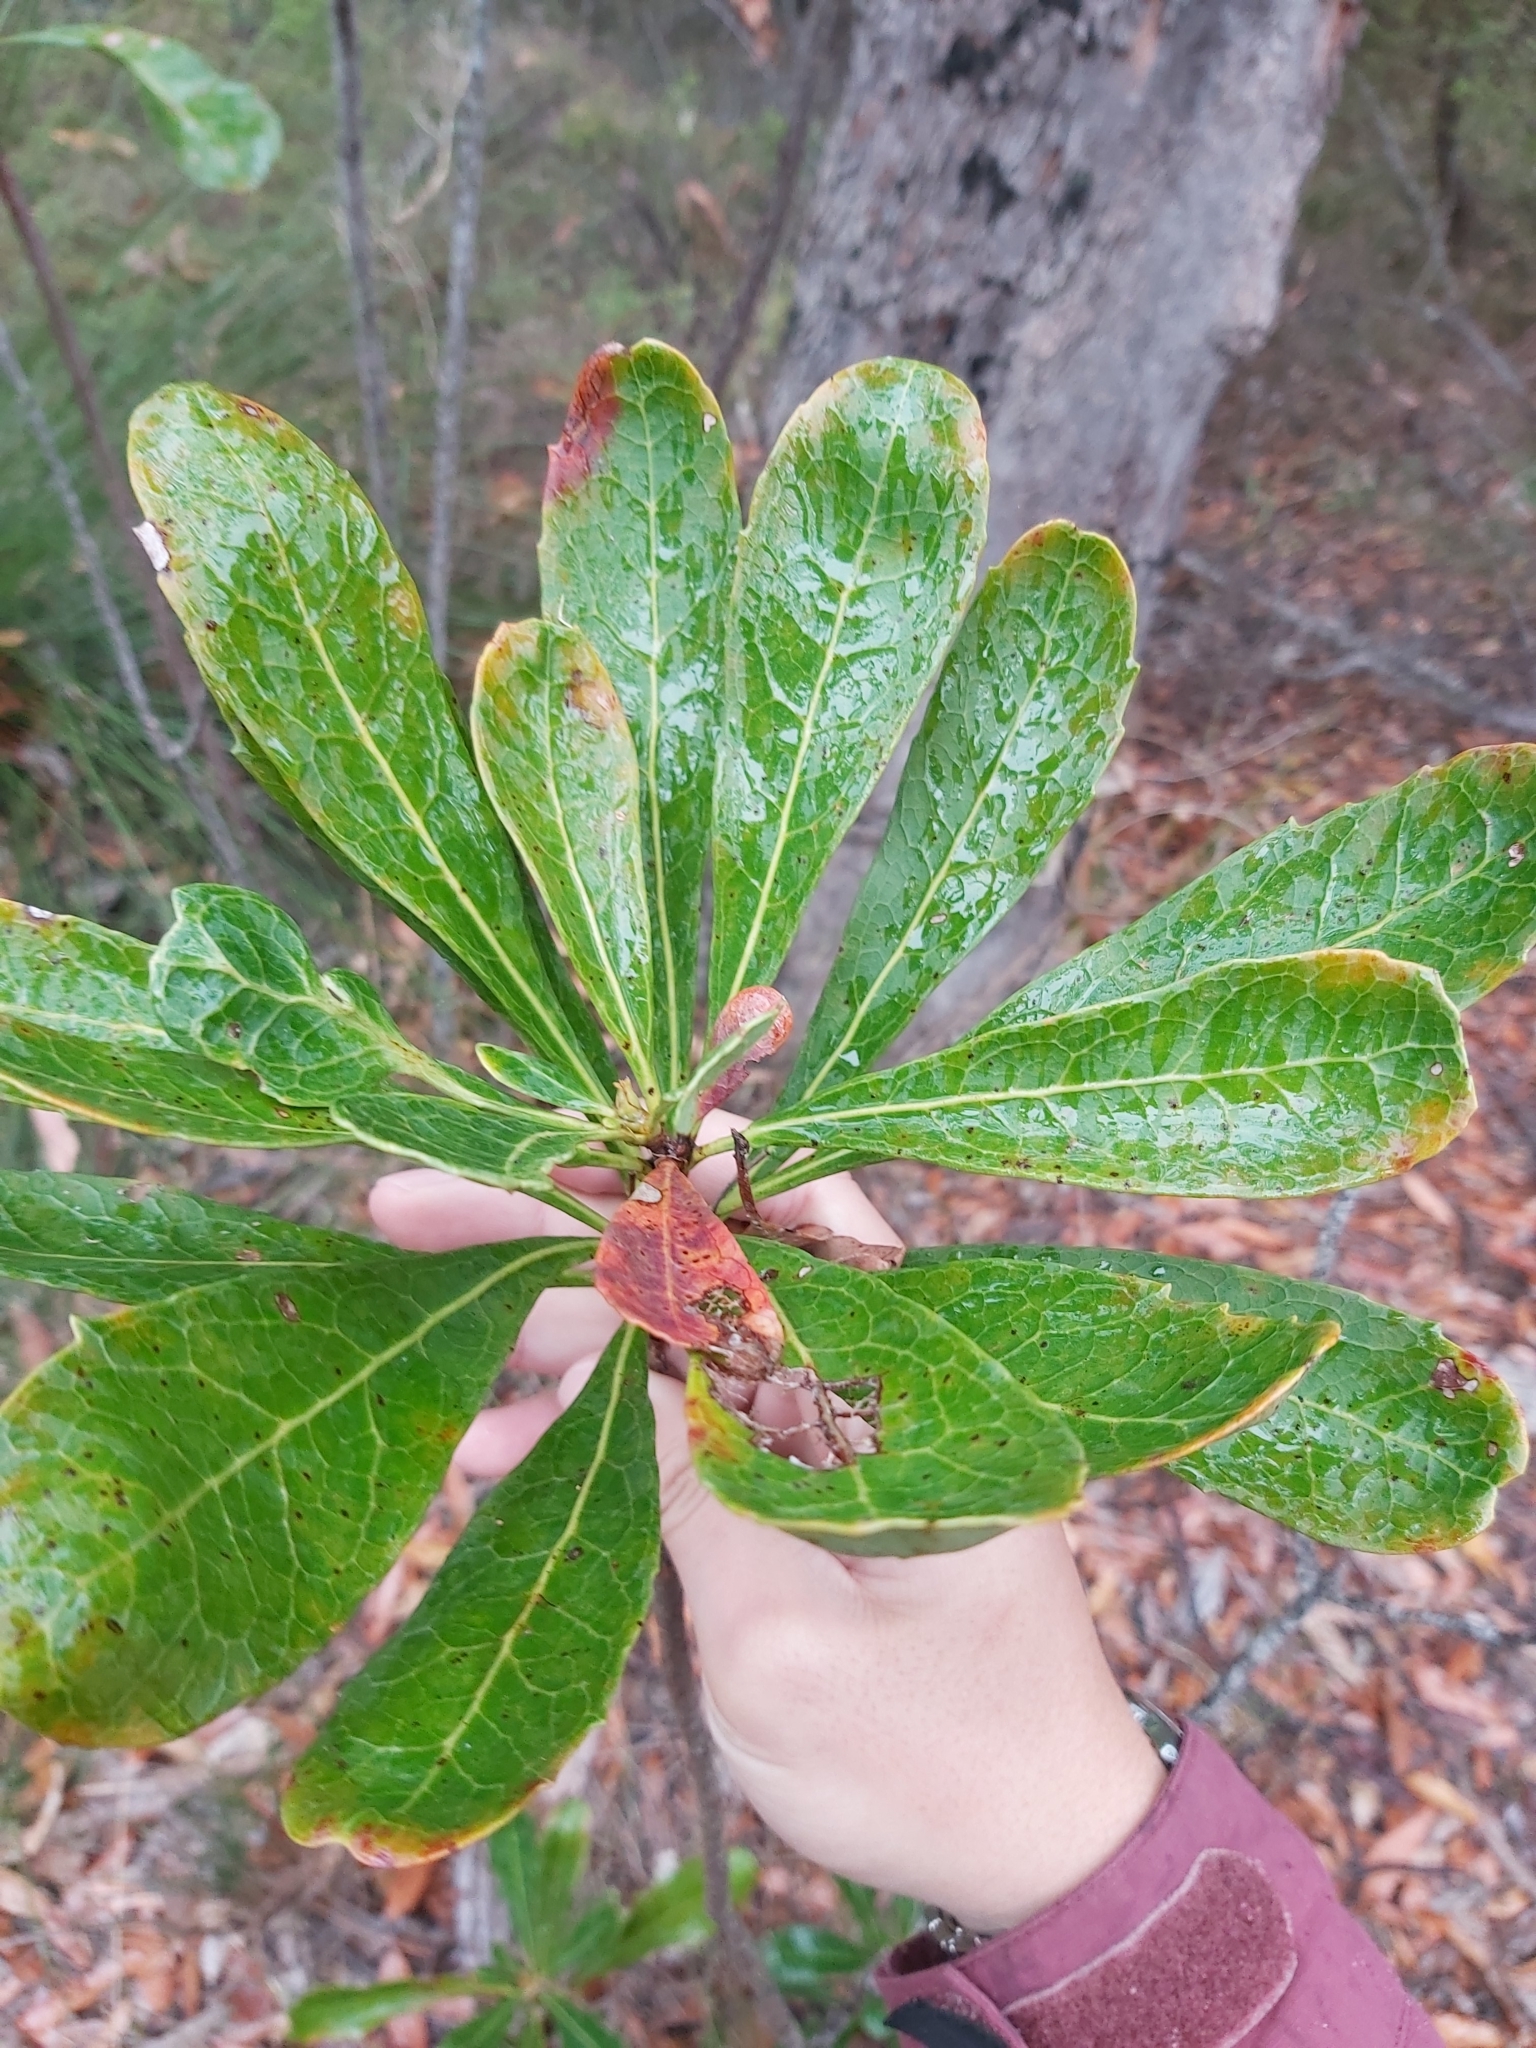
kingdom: Plantae
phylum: Tracheophyta
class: Magnoliopsida
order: Proteales
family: Proteaceae
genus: Telopea
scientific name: Telopea speciosissima
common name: New south wales waratah
